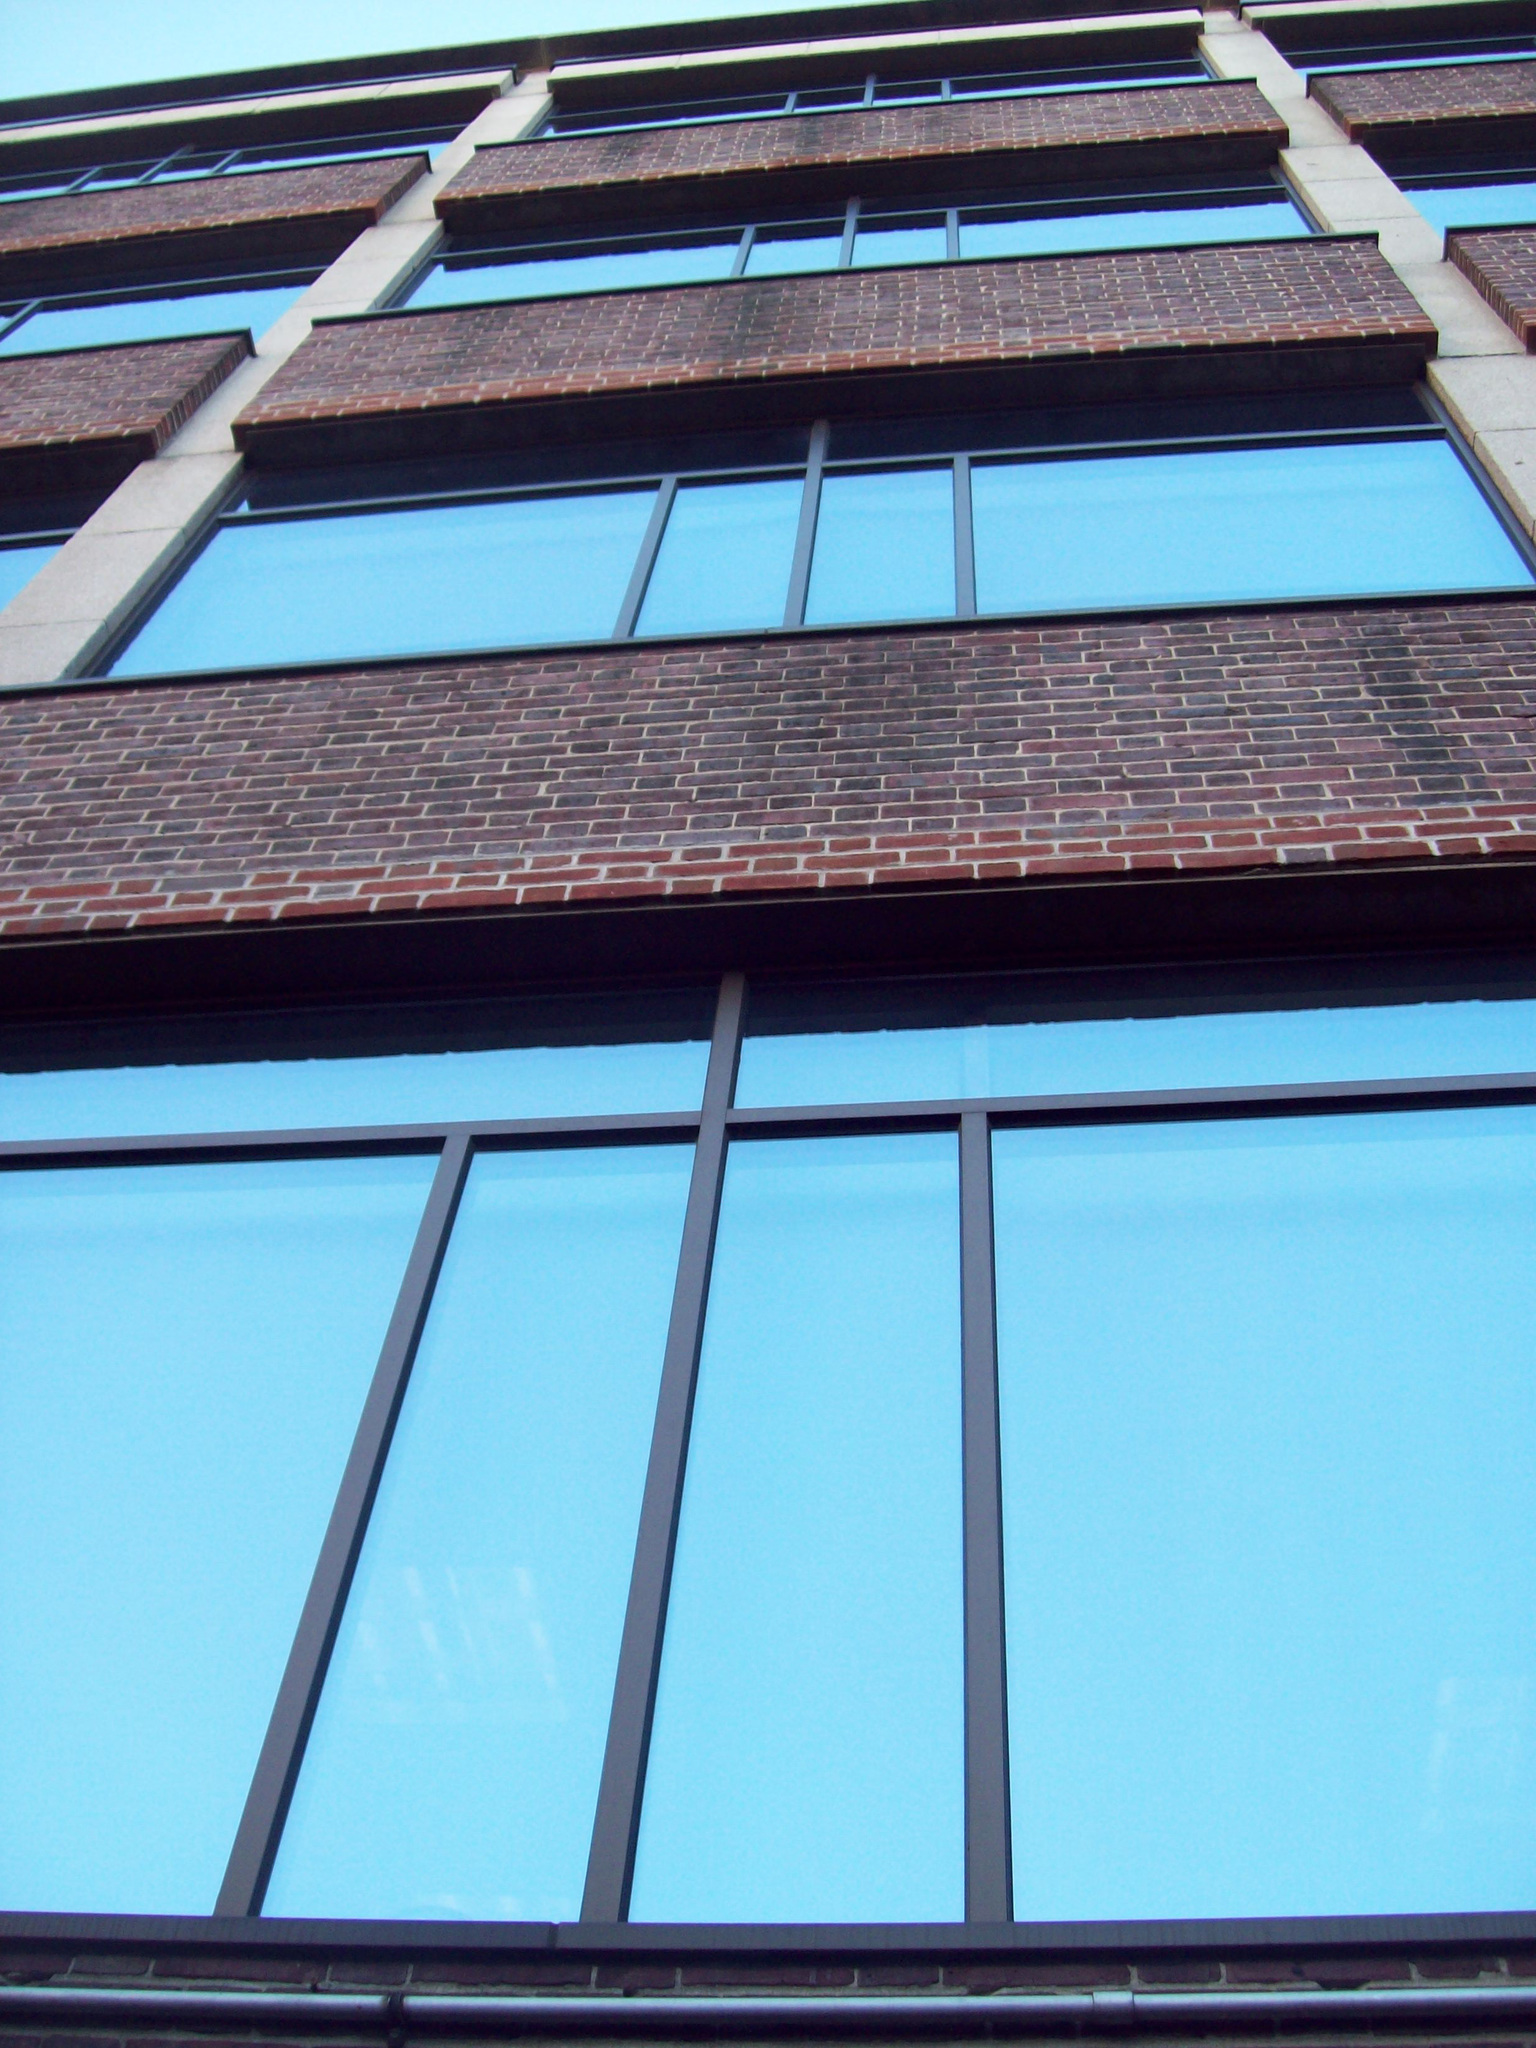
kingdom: Animalia
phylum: Chordata
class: Aves
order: Passeriformes
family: Passeridae
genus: Passer
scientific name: Passer domesticus
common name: House sparrow
